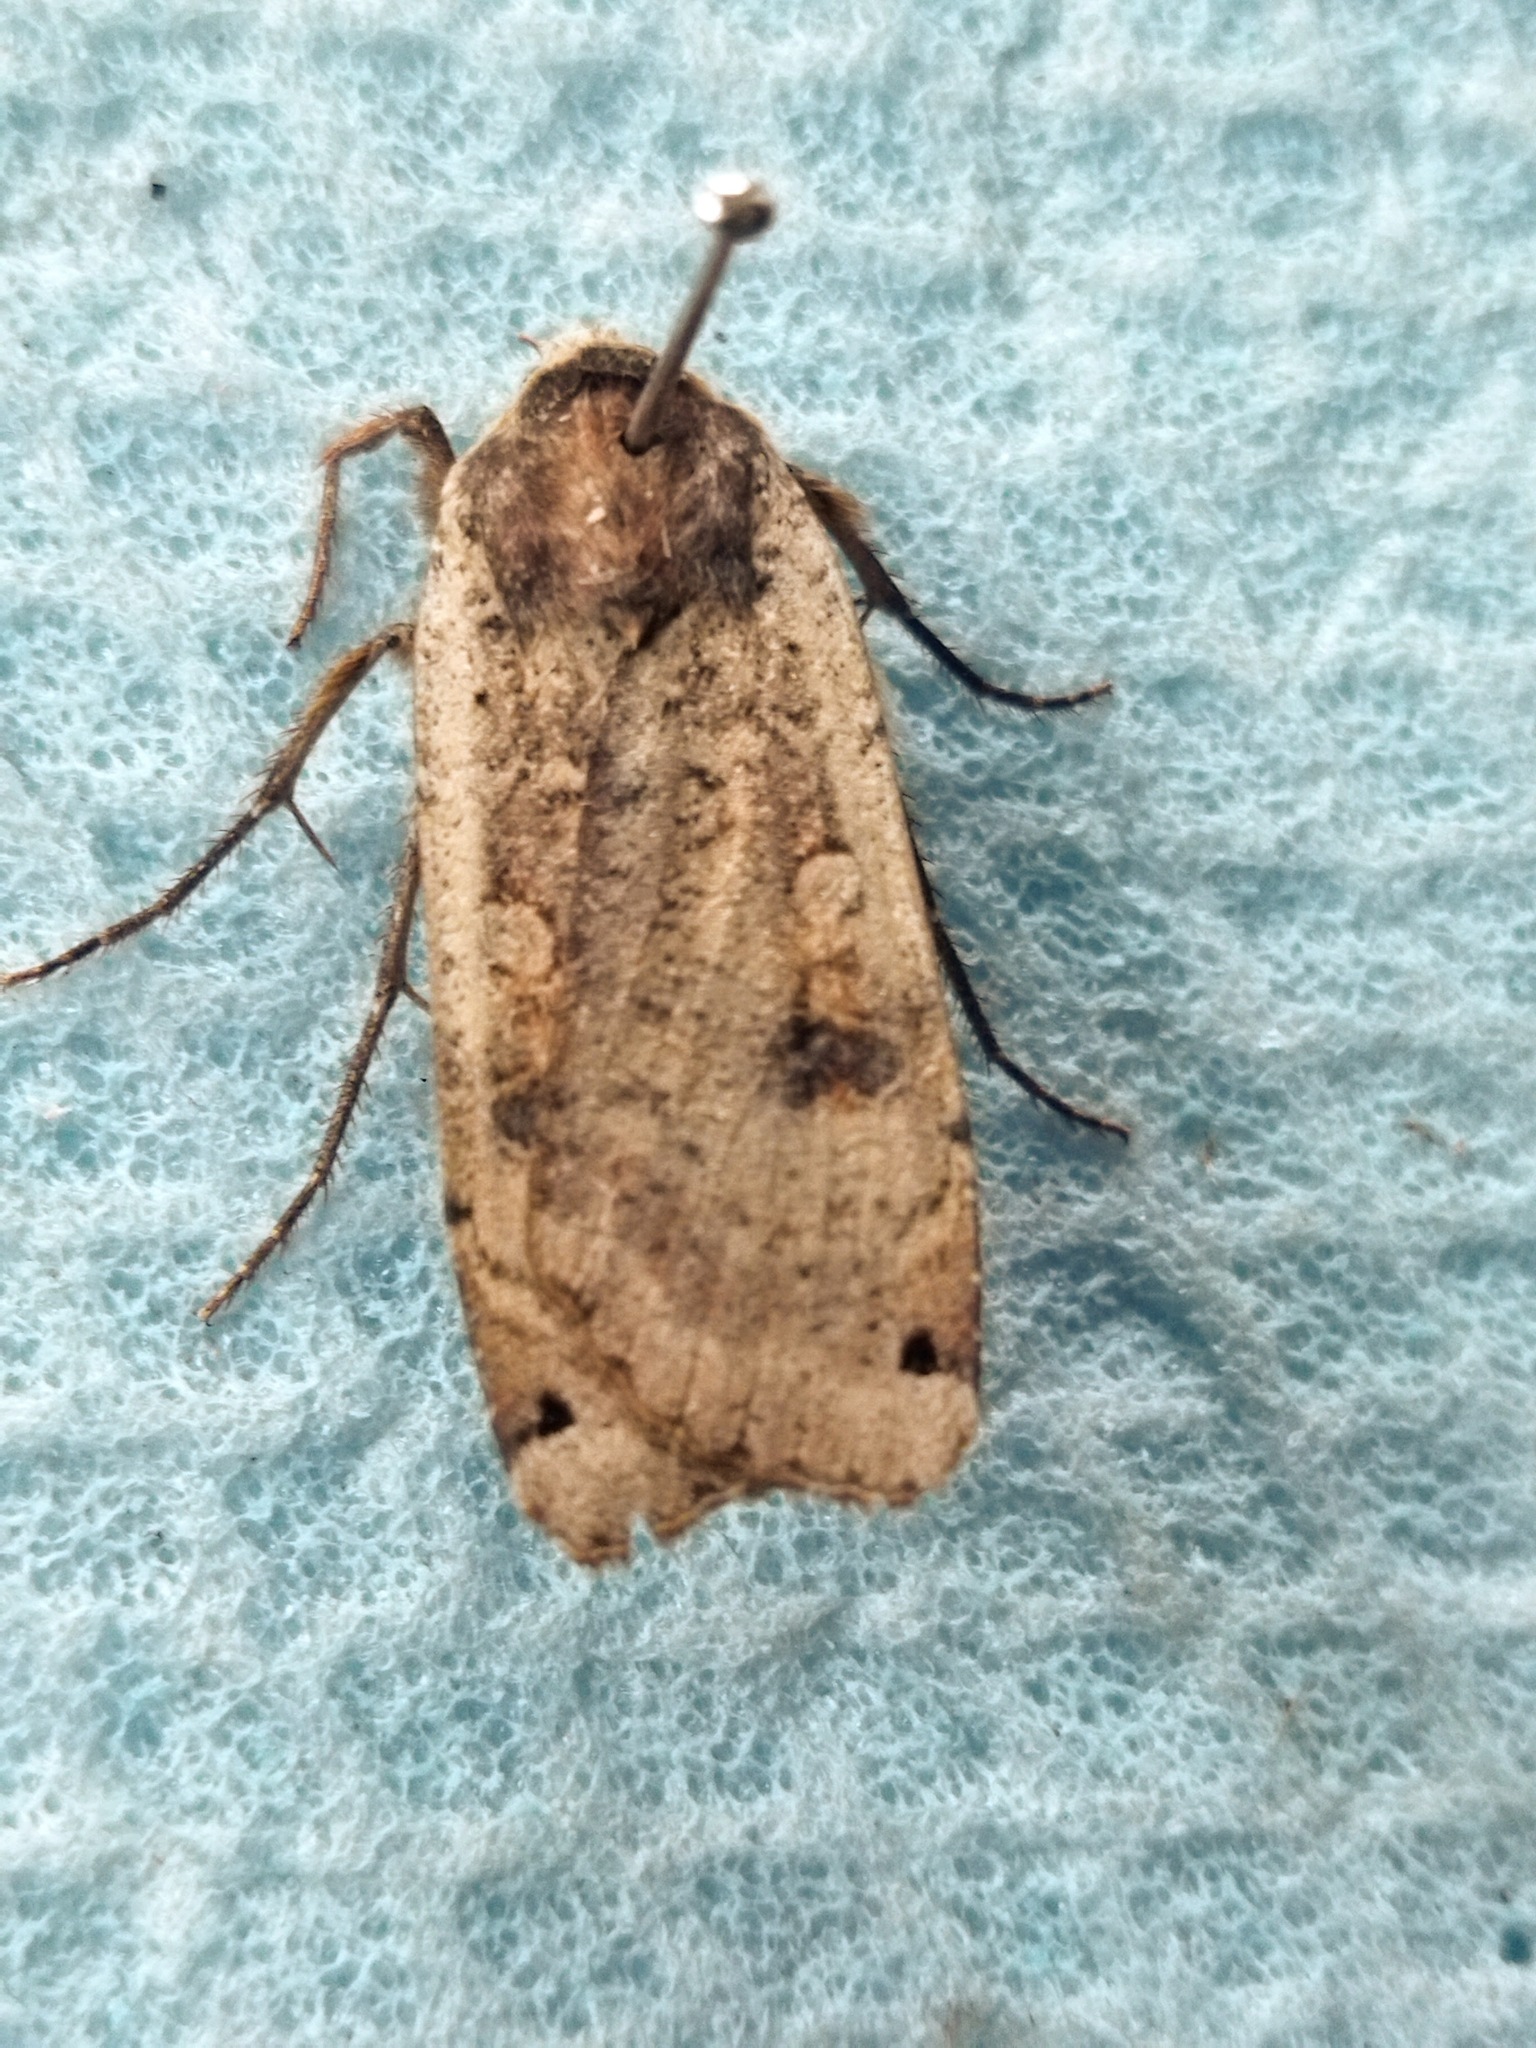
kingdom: Animalia
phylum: Arthropoda
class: Insecta
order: Lepidoptera
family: Noctuidae
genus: Noctua
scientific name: Noctua pronuba
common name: Large yellow underwing
